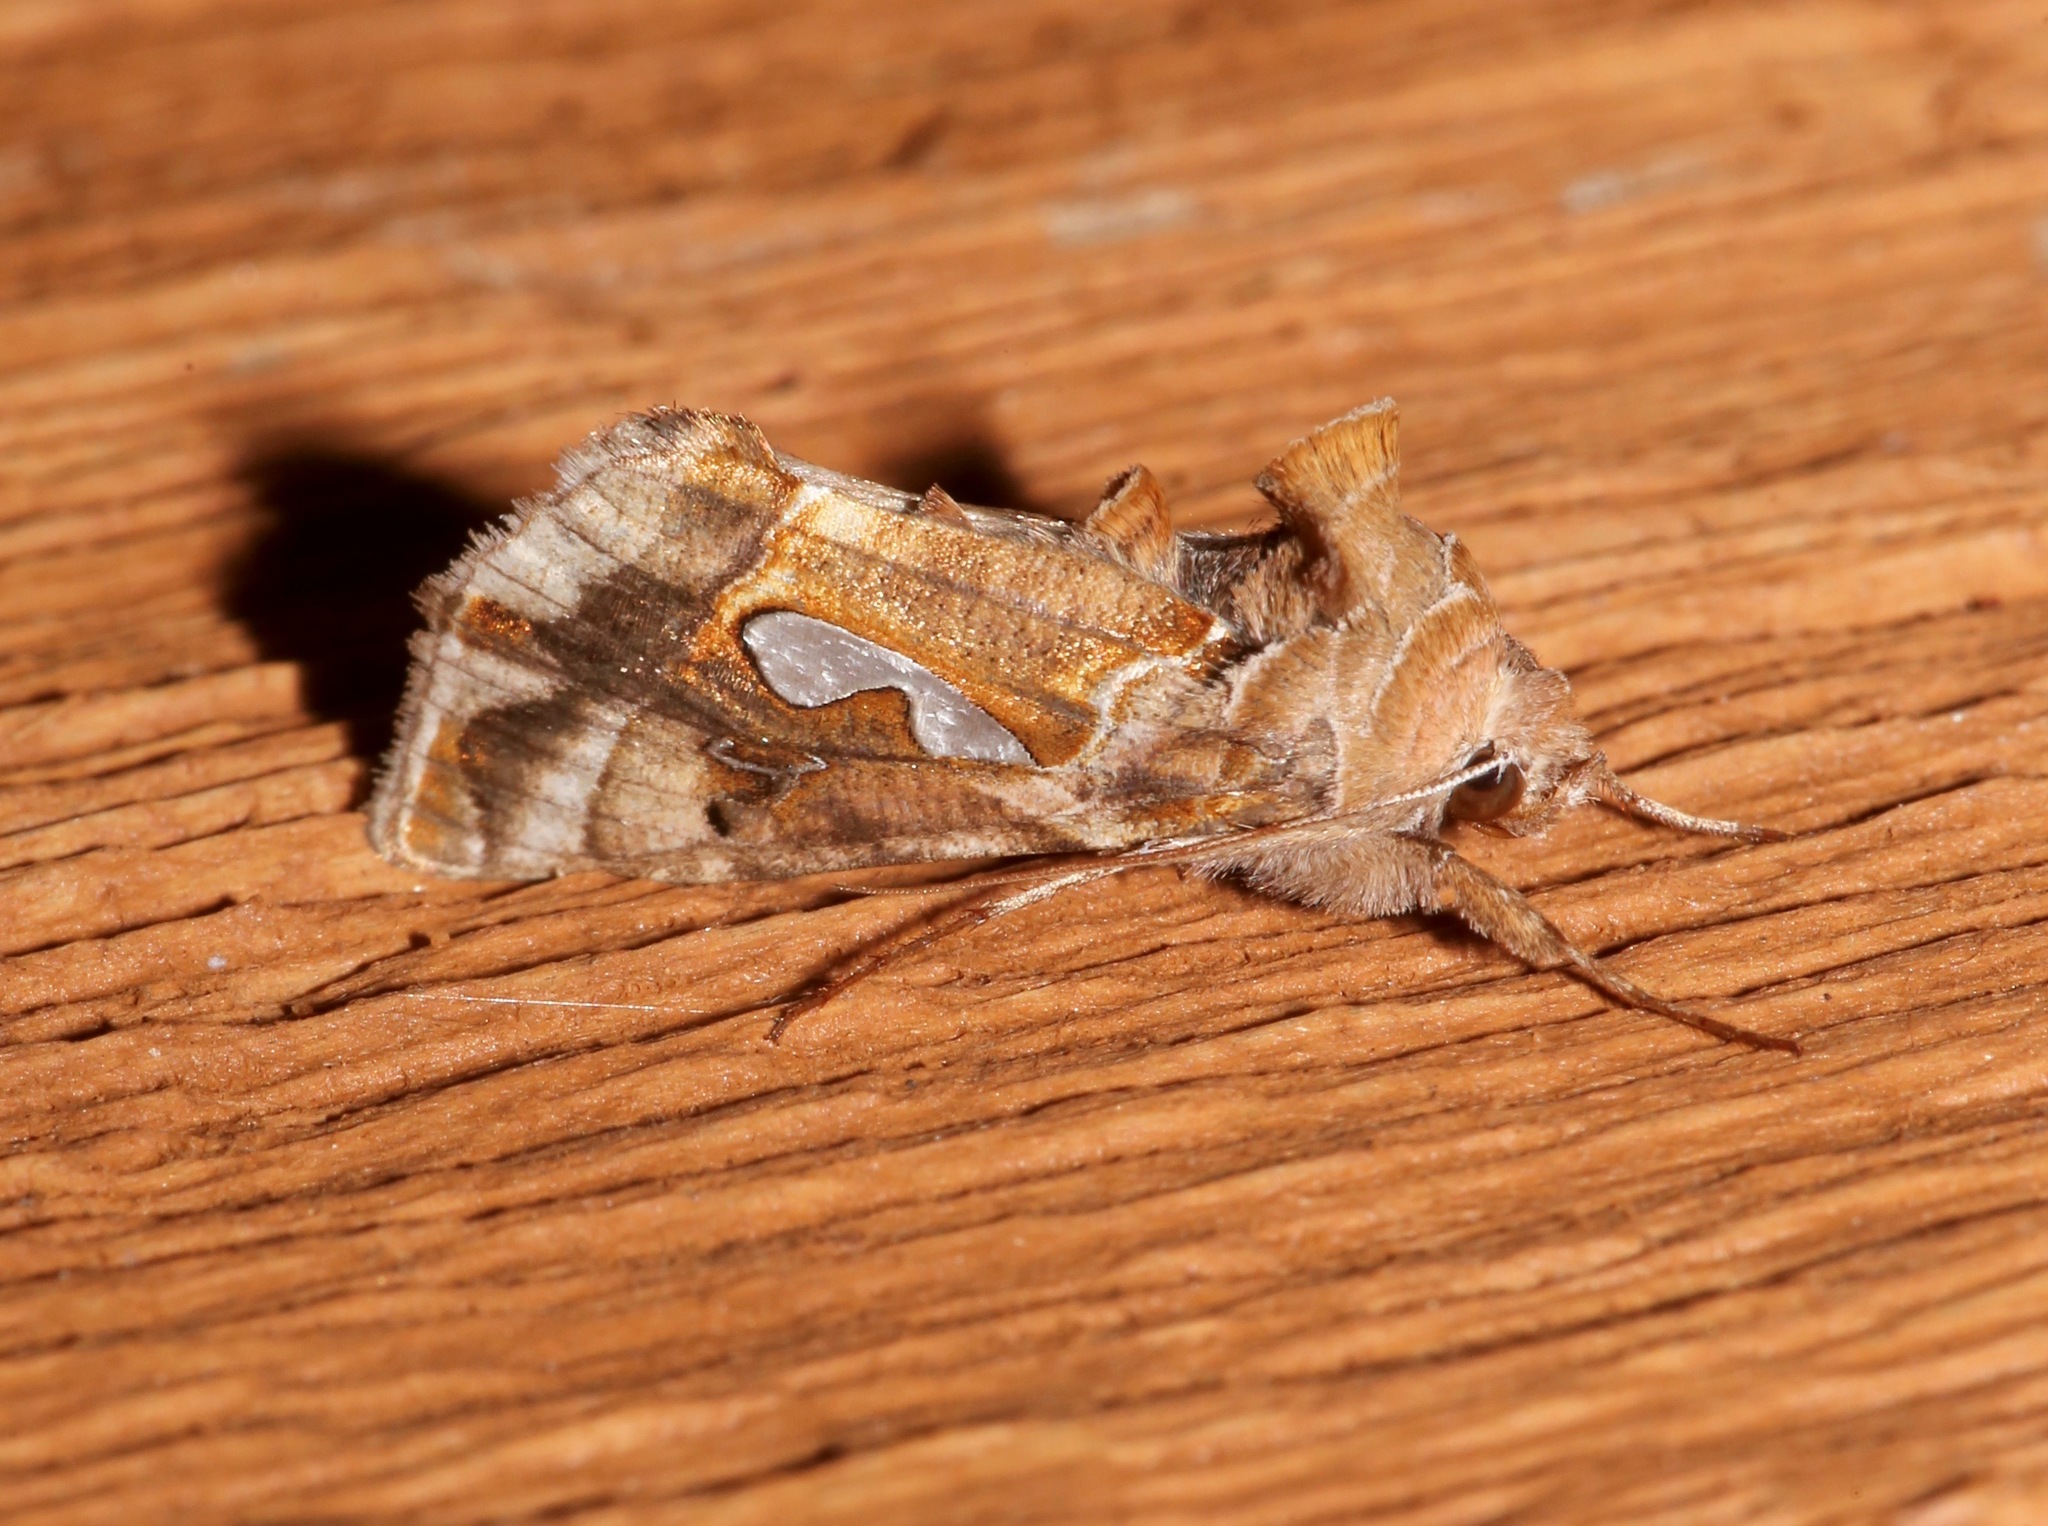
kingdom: Animalia
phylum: Arthropoda
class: Insecta
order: Lepidoptera
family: Noctuidae
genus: Megalographa
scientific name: Megalographa biloba
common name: Cutworm
